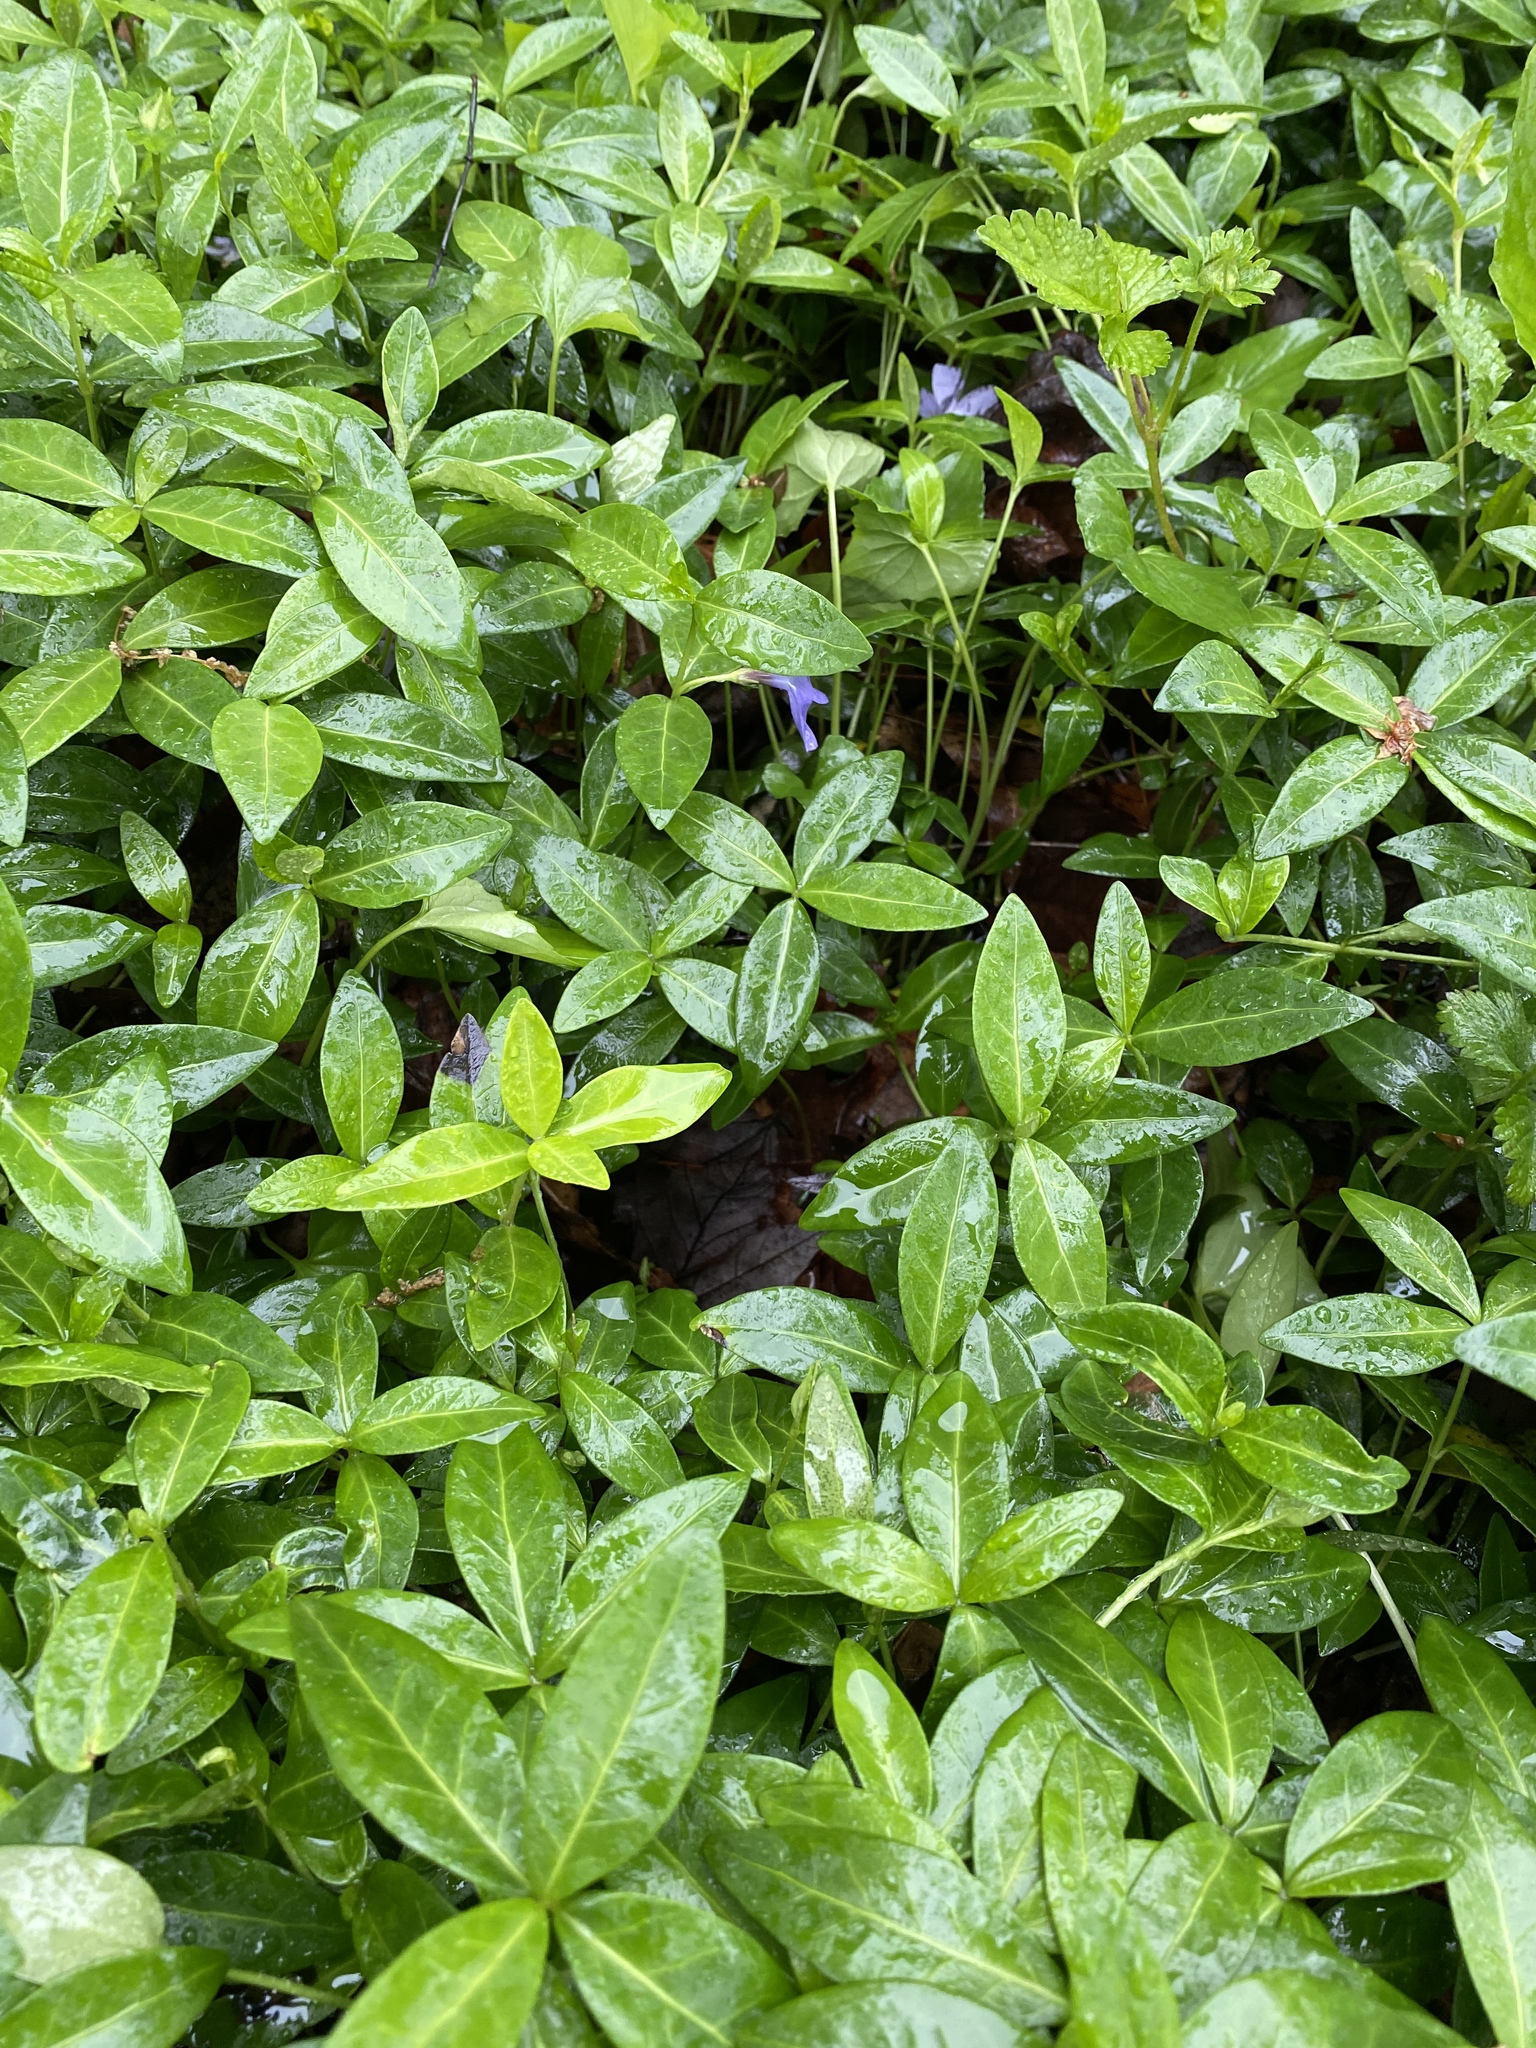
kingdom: Plantae
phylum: Tracheophyta
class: Magnoliopsida
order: Gentianales
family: Apocynaceae
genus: Vinca
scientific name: Vinca minor
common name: Lesser periwinkle
